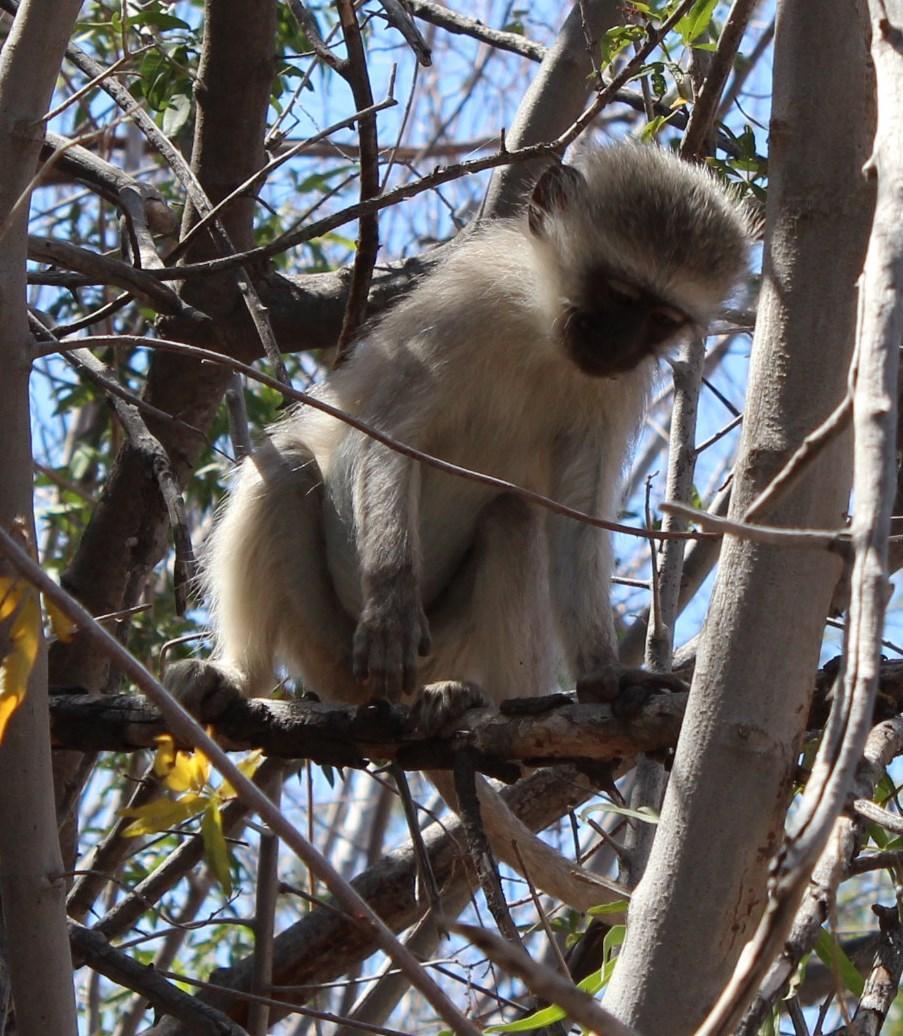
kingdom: Animalia
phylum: Chordata
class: Mammalia
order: Primates
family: Cercopithecidae
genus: Chlorocebus
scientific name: Chlorocebus pygerythrus
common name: Vervet monkey
